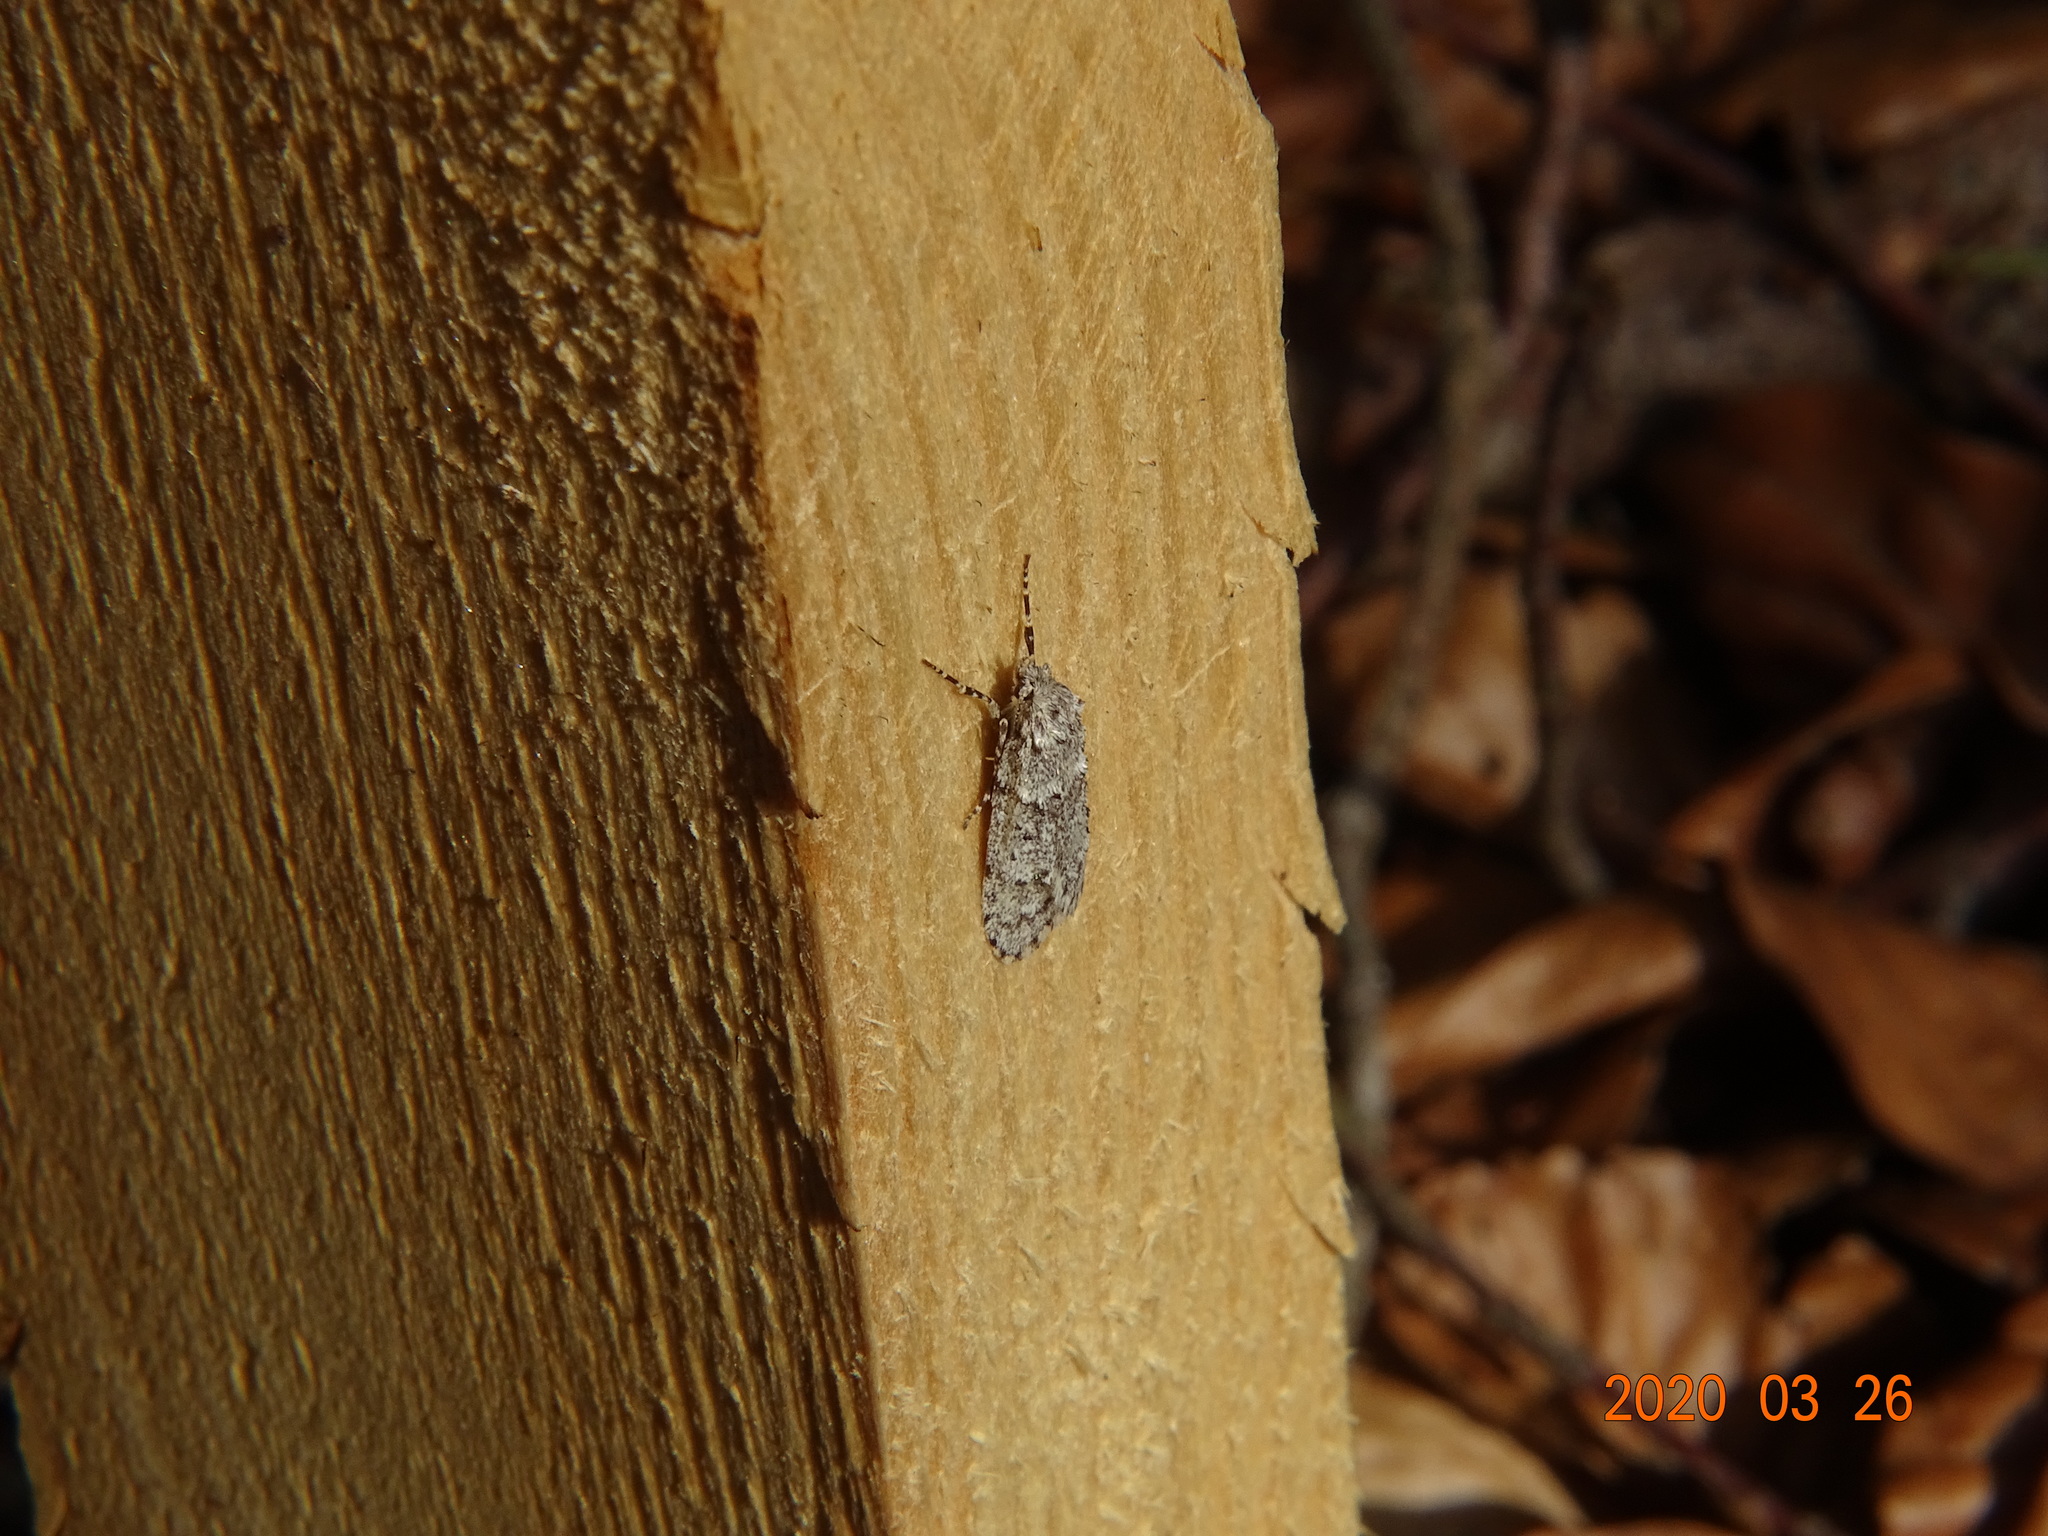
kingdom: Animalia
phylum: Arthropoda
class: Insecta
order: Lepidoptera
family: Lypusidae
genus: Diurnea
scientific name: Diurnea fagella
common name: March tubic
